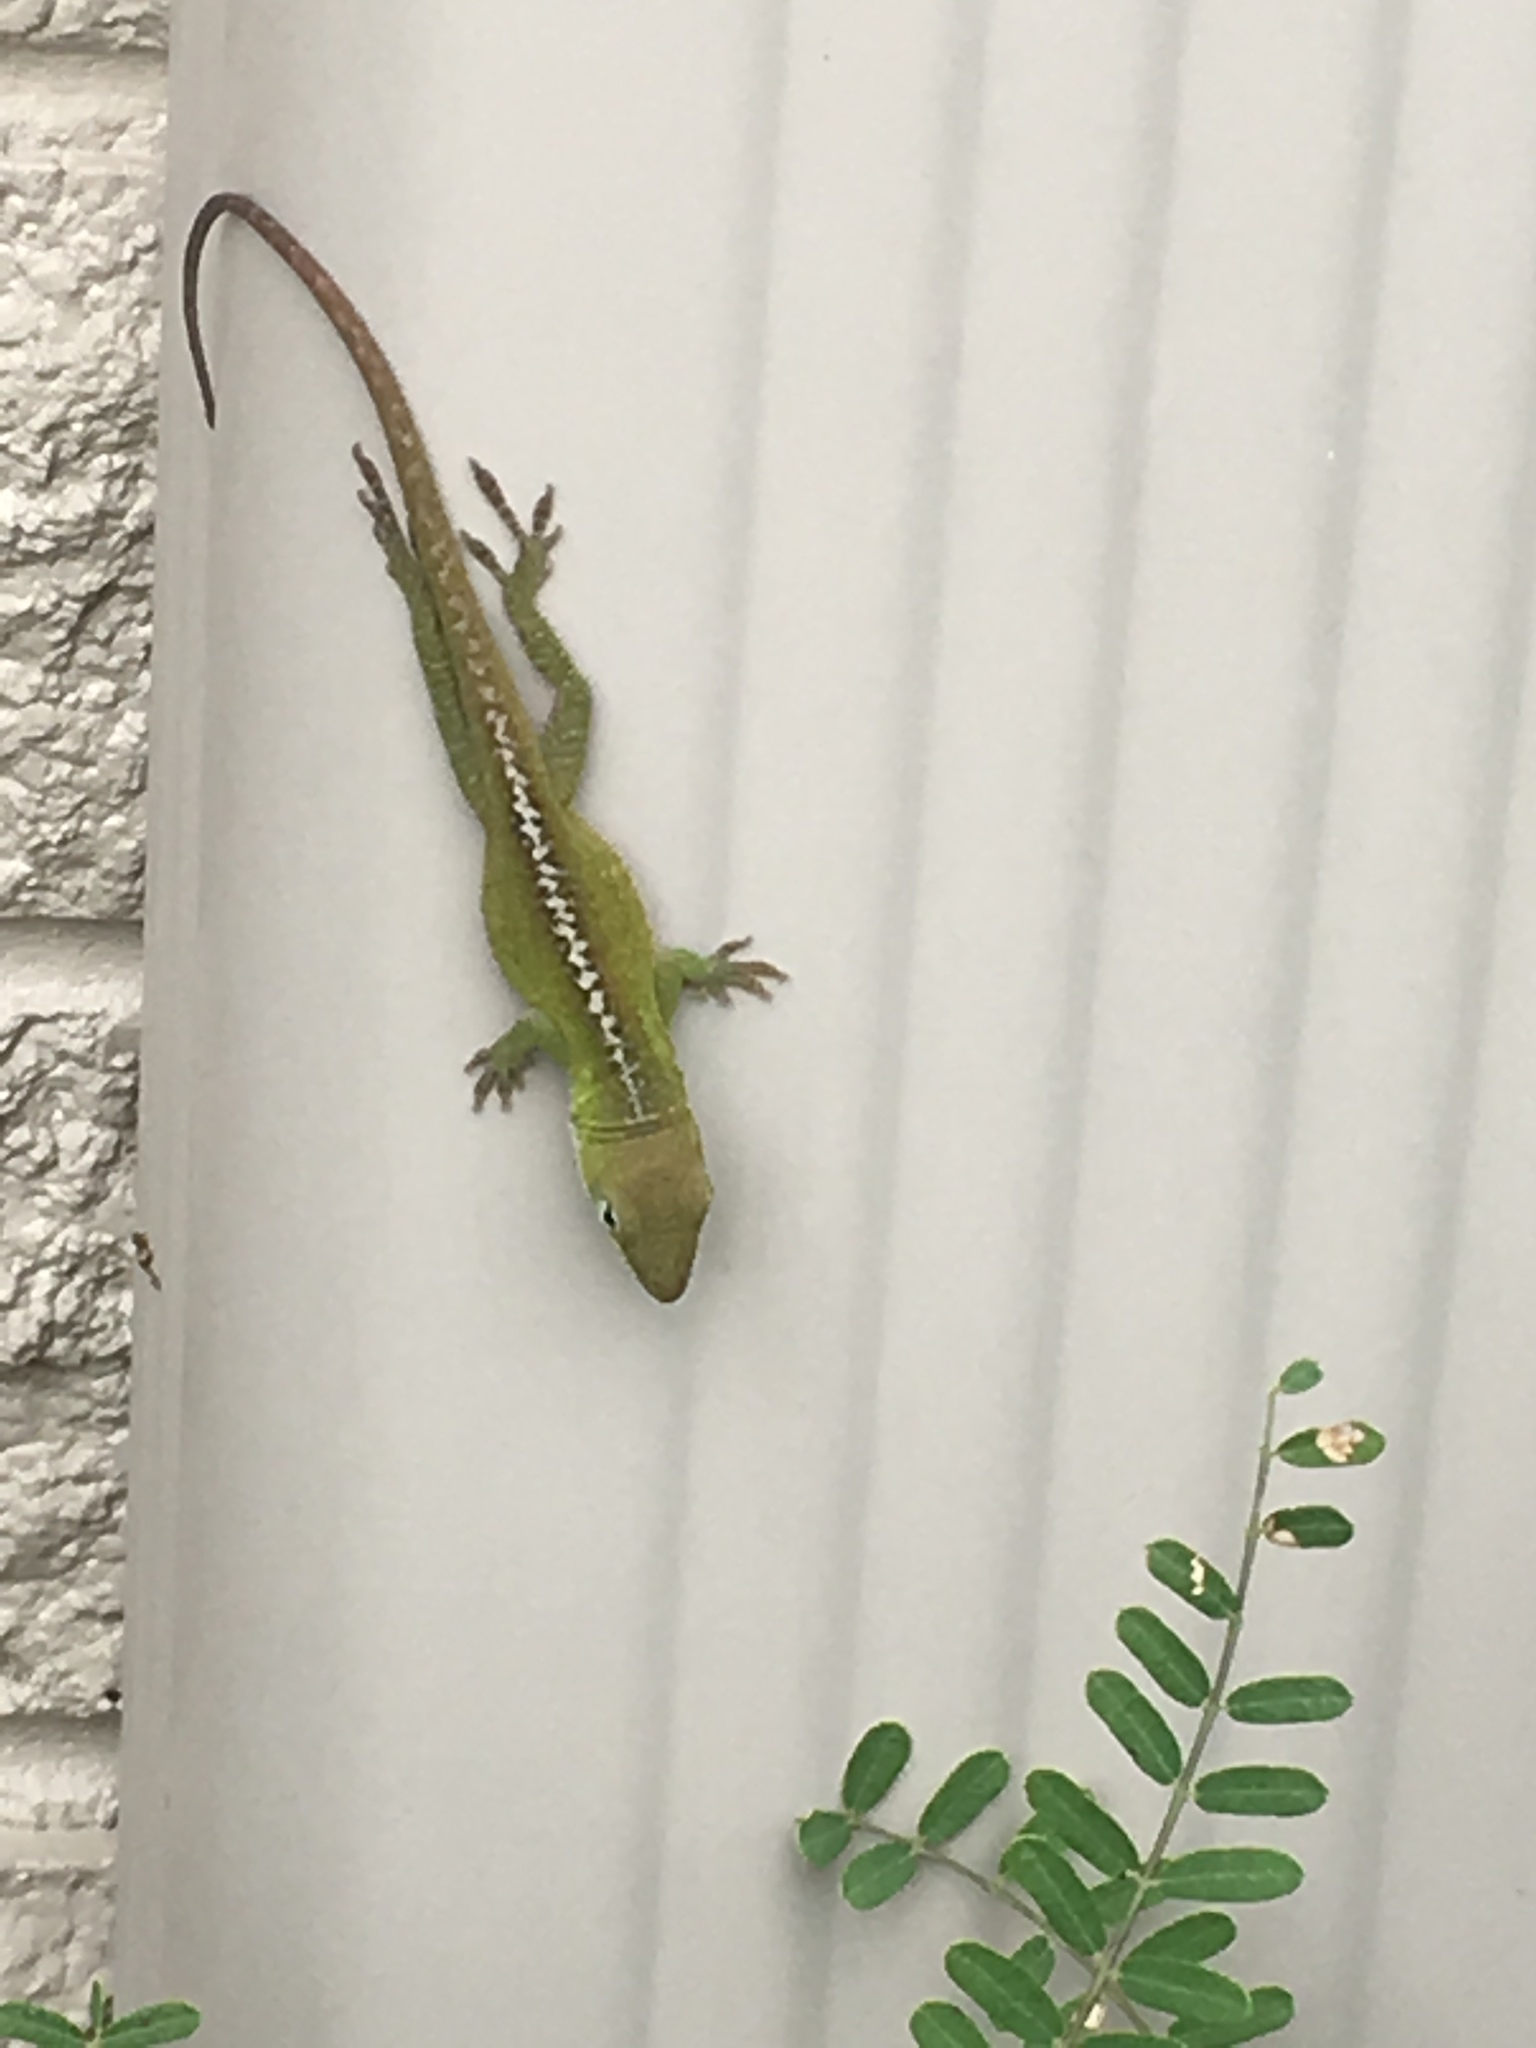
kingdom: Animalia
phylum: Chordata
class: Squamata
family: Dactyloidae
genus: Anolis
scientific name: Anolis carolinensis
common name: Green anole
